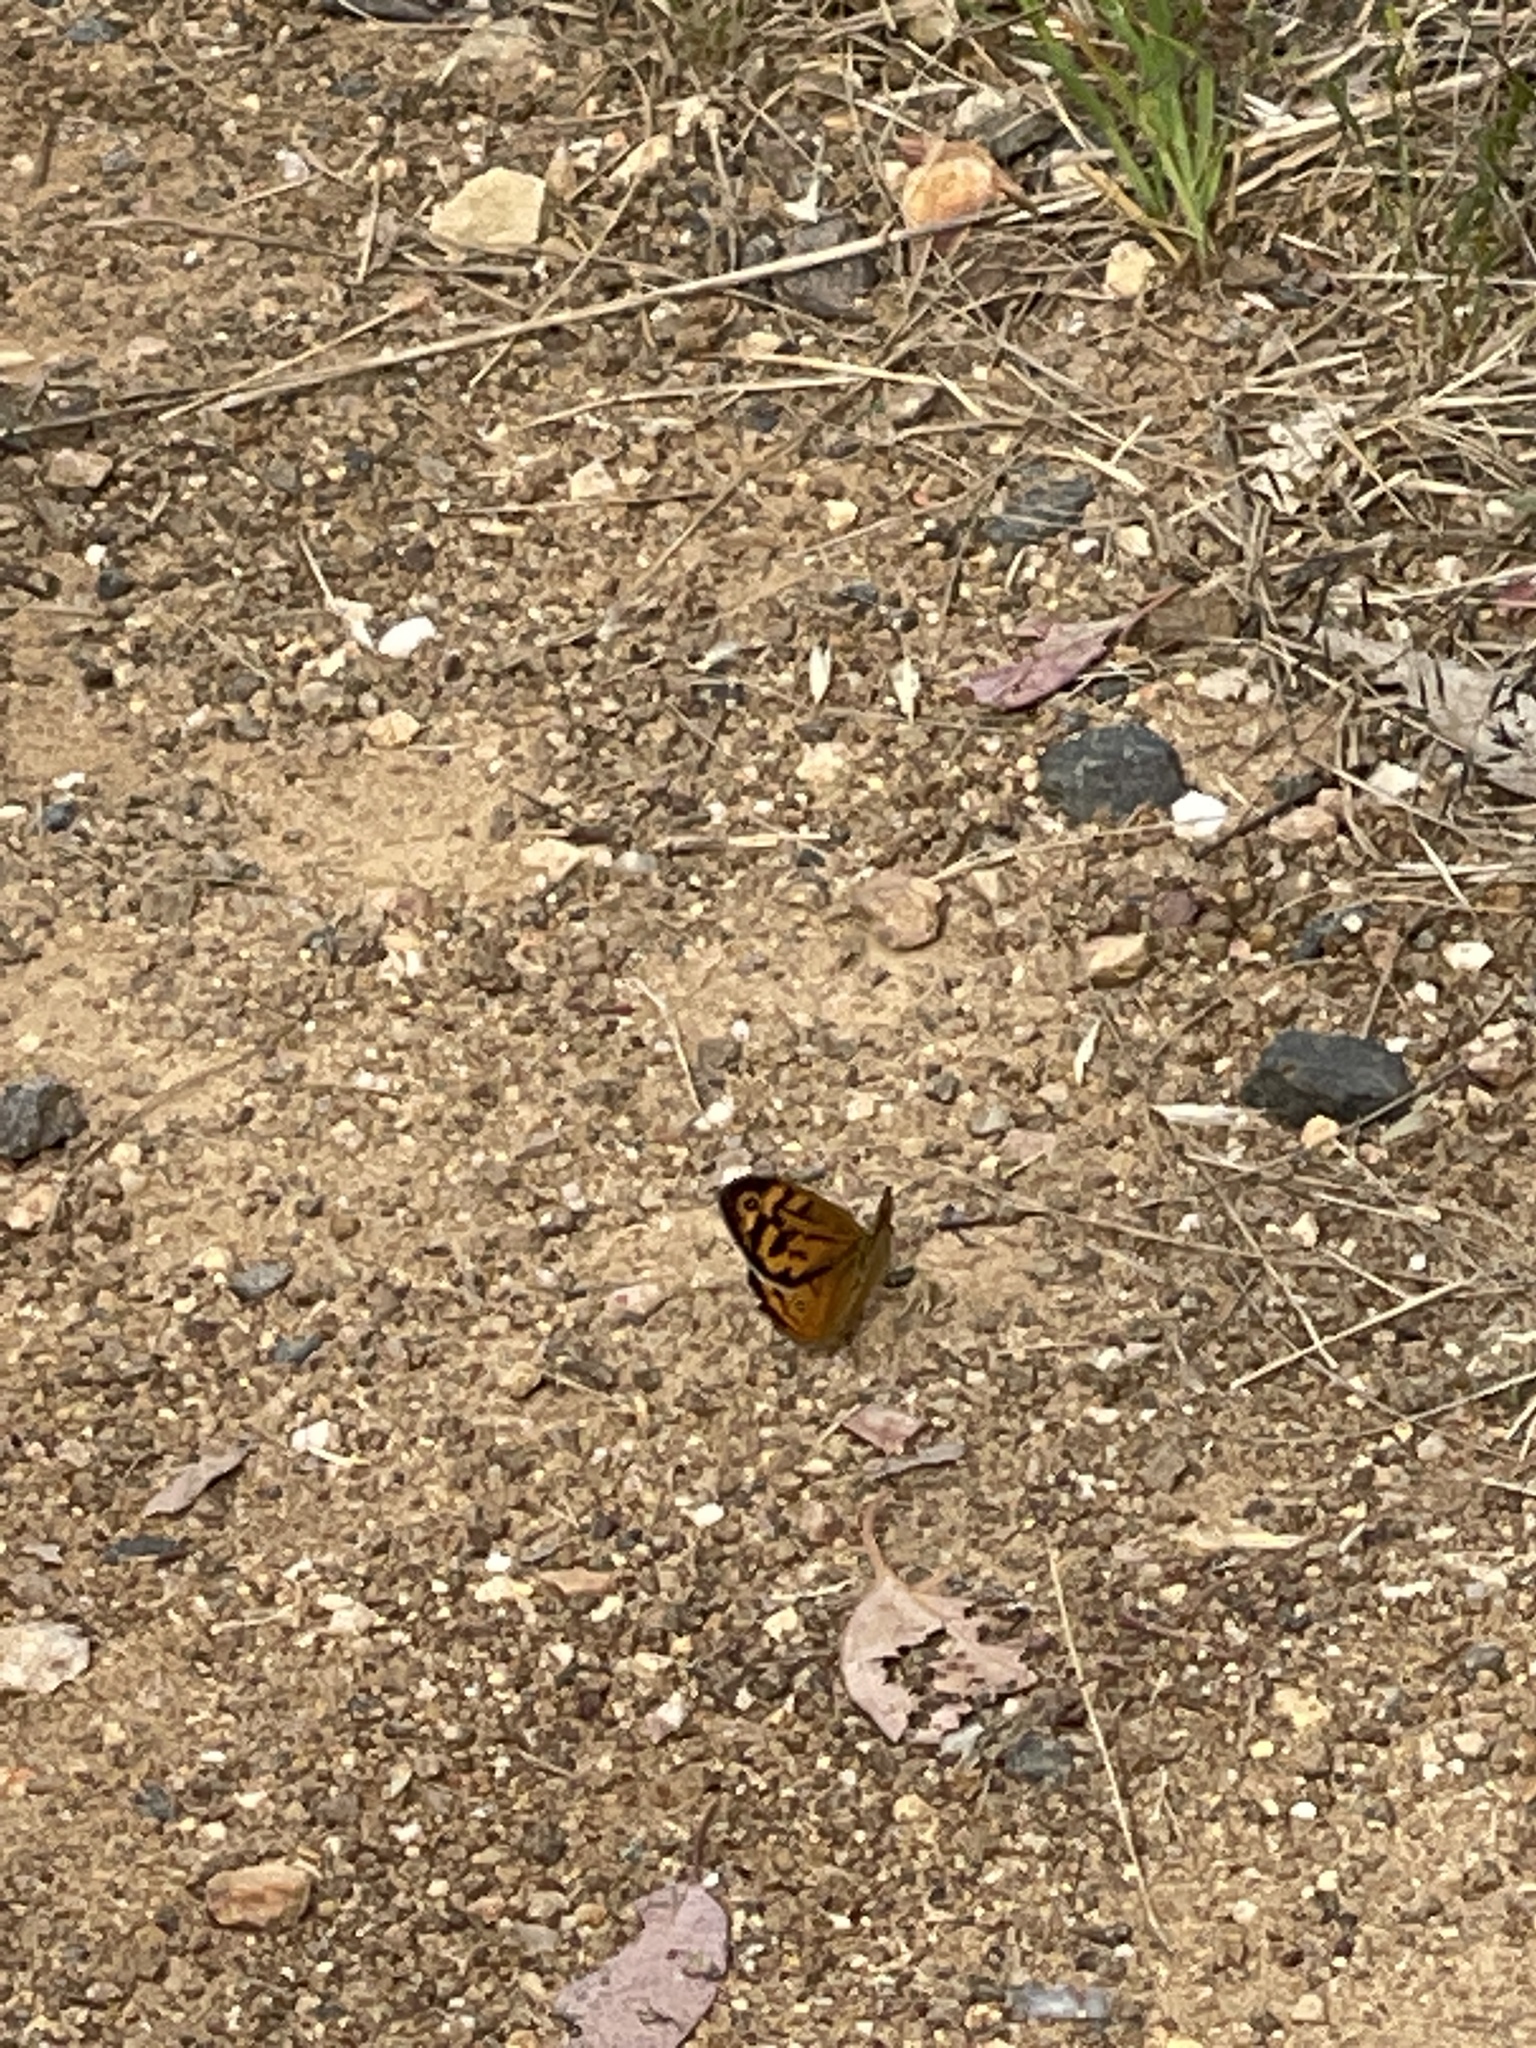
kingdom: Animalia
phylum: Arthropoda
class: Insecta
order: Lepidoptera
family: Nymphalidae
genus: Heteronympha
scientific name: Heteronympha merope
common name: Common brown
